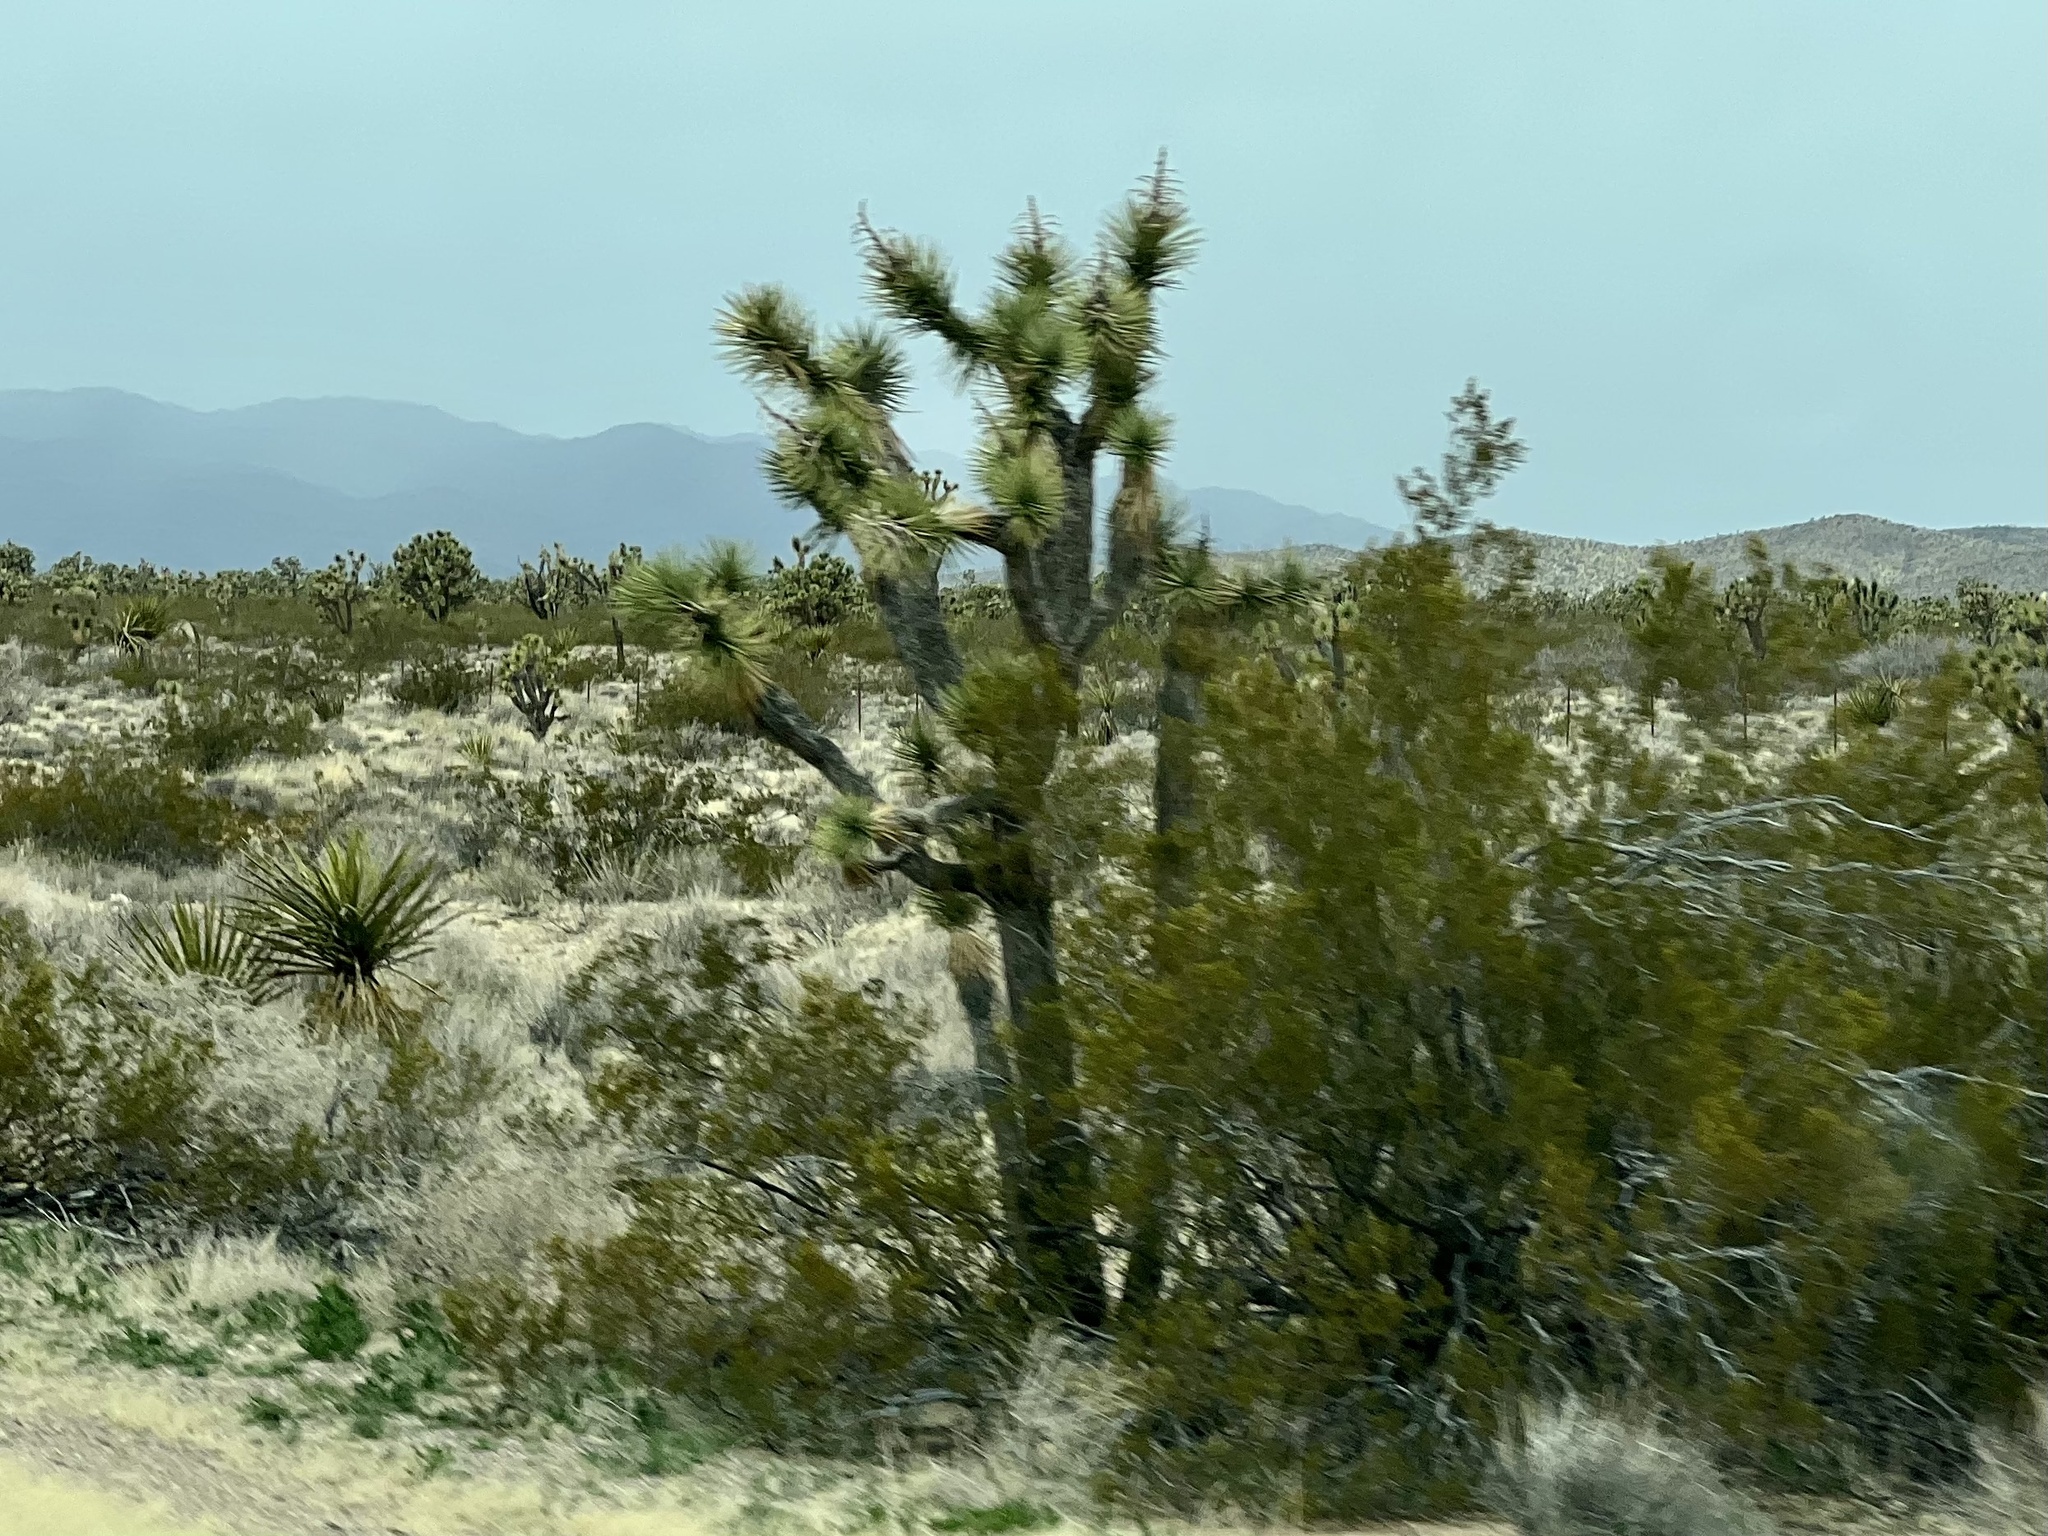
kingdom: Plantae
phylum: Tracheophyta
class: Liliopsida
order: Asparagales
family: Asparagaceae
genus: Yucca
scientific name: Yucca brevifolia
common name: Joshua tree
